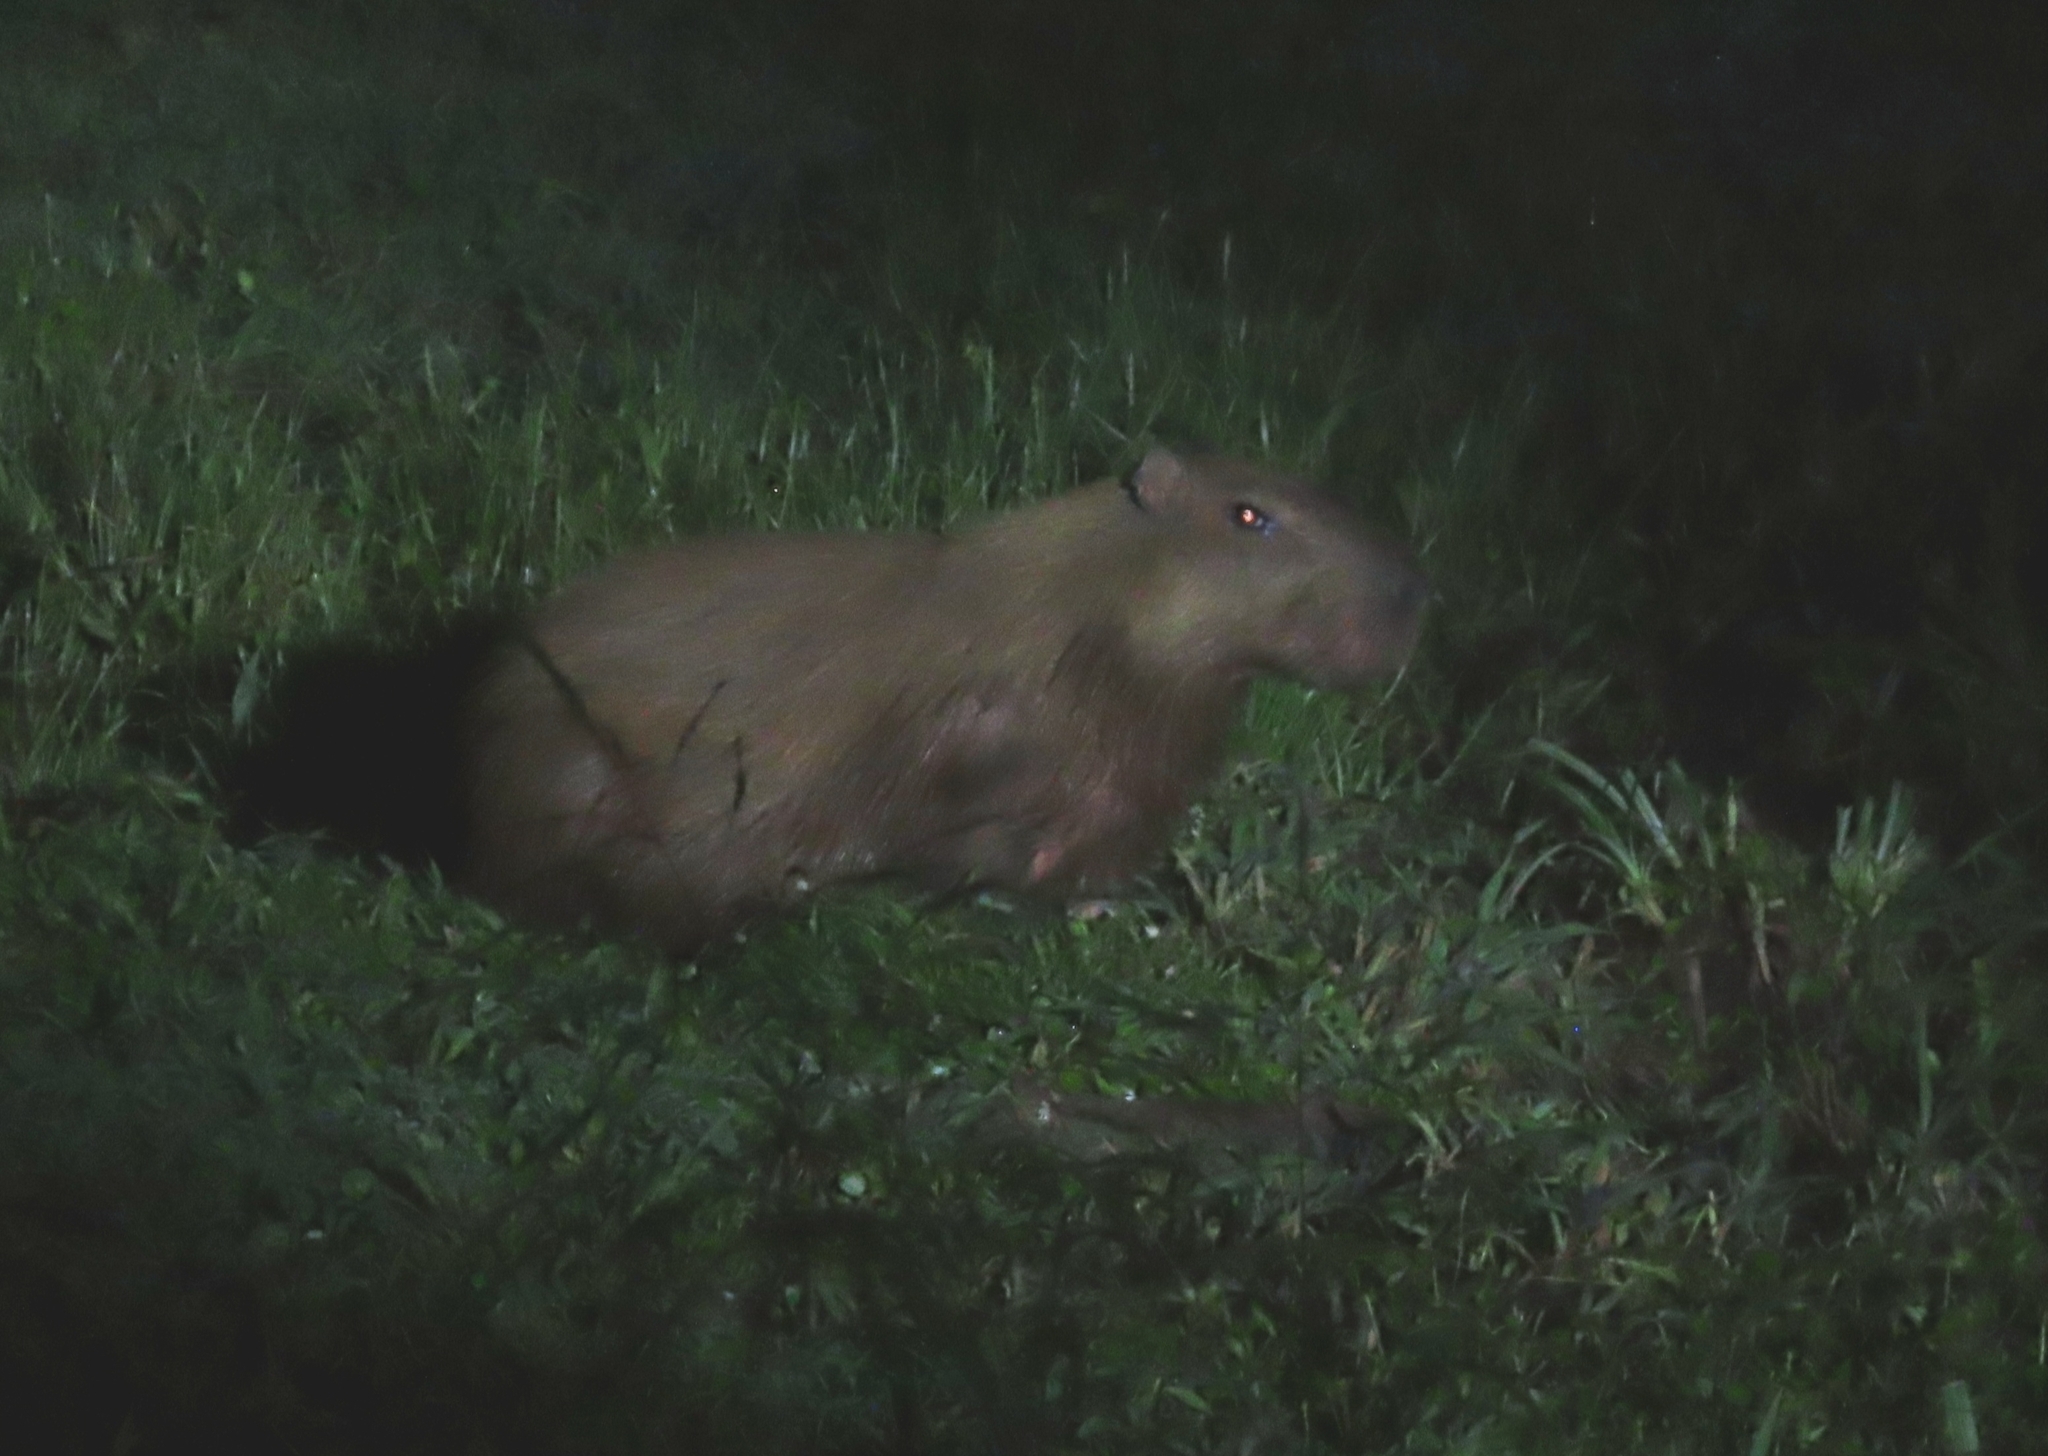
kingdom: Animalia
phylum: Chordata
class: Mammalia
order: Rodentia
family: Caviidae
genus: Hydrochoerus
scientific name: Hydrochoerus isthmius
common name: Lesser capybara
